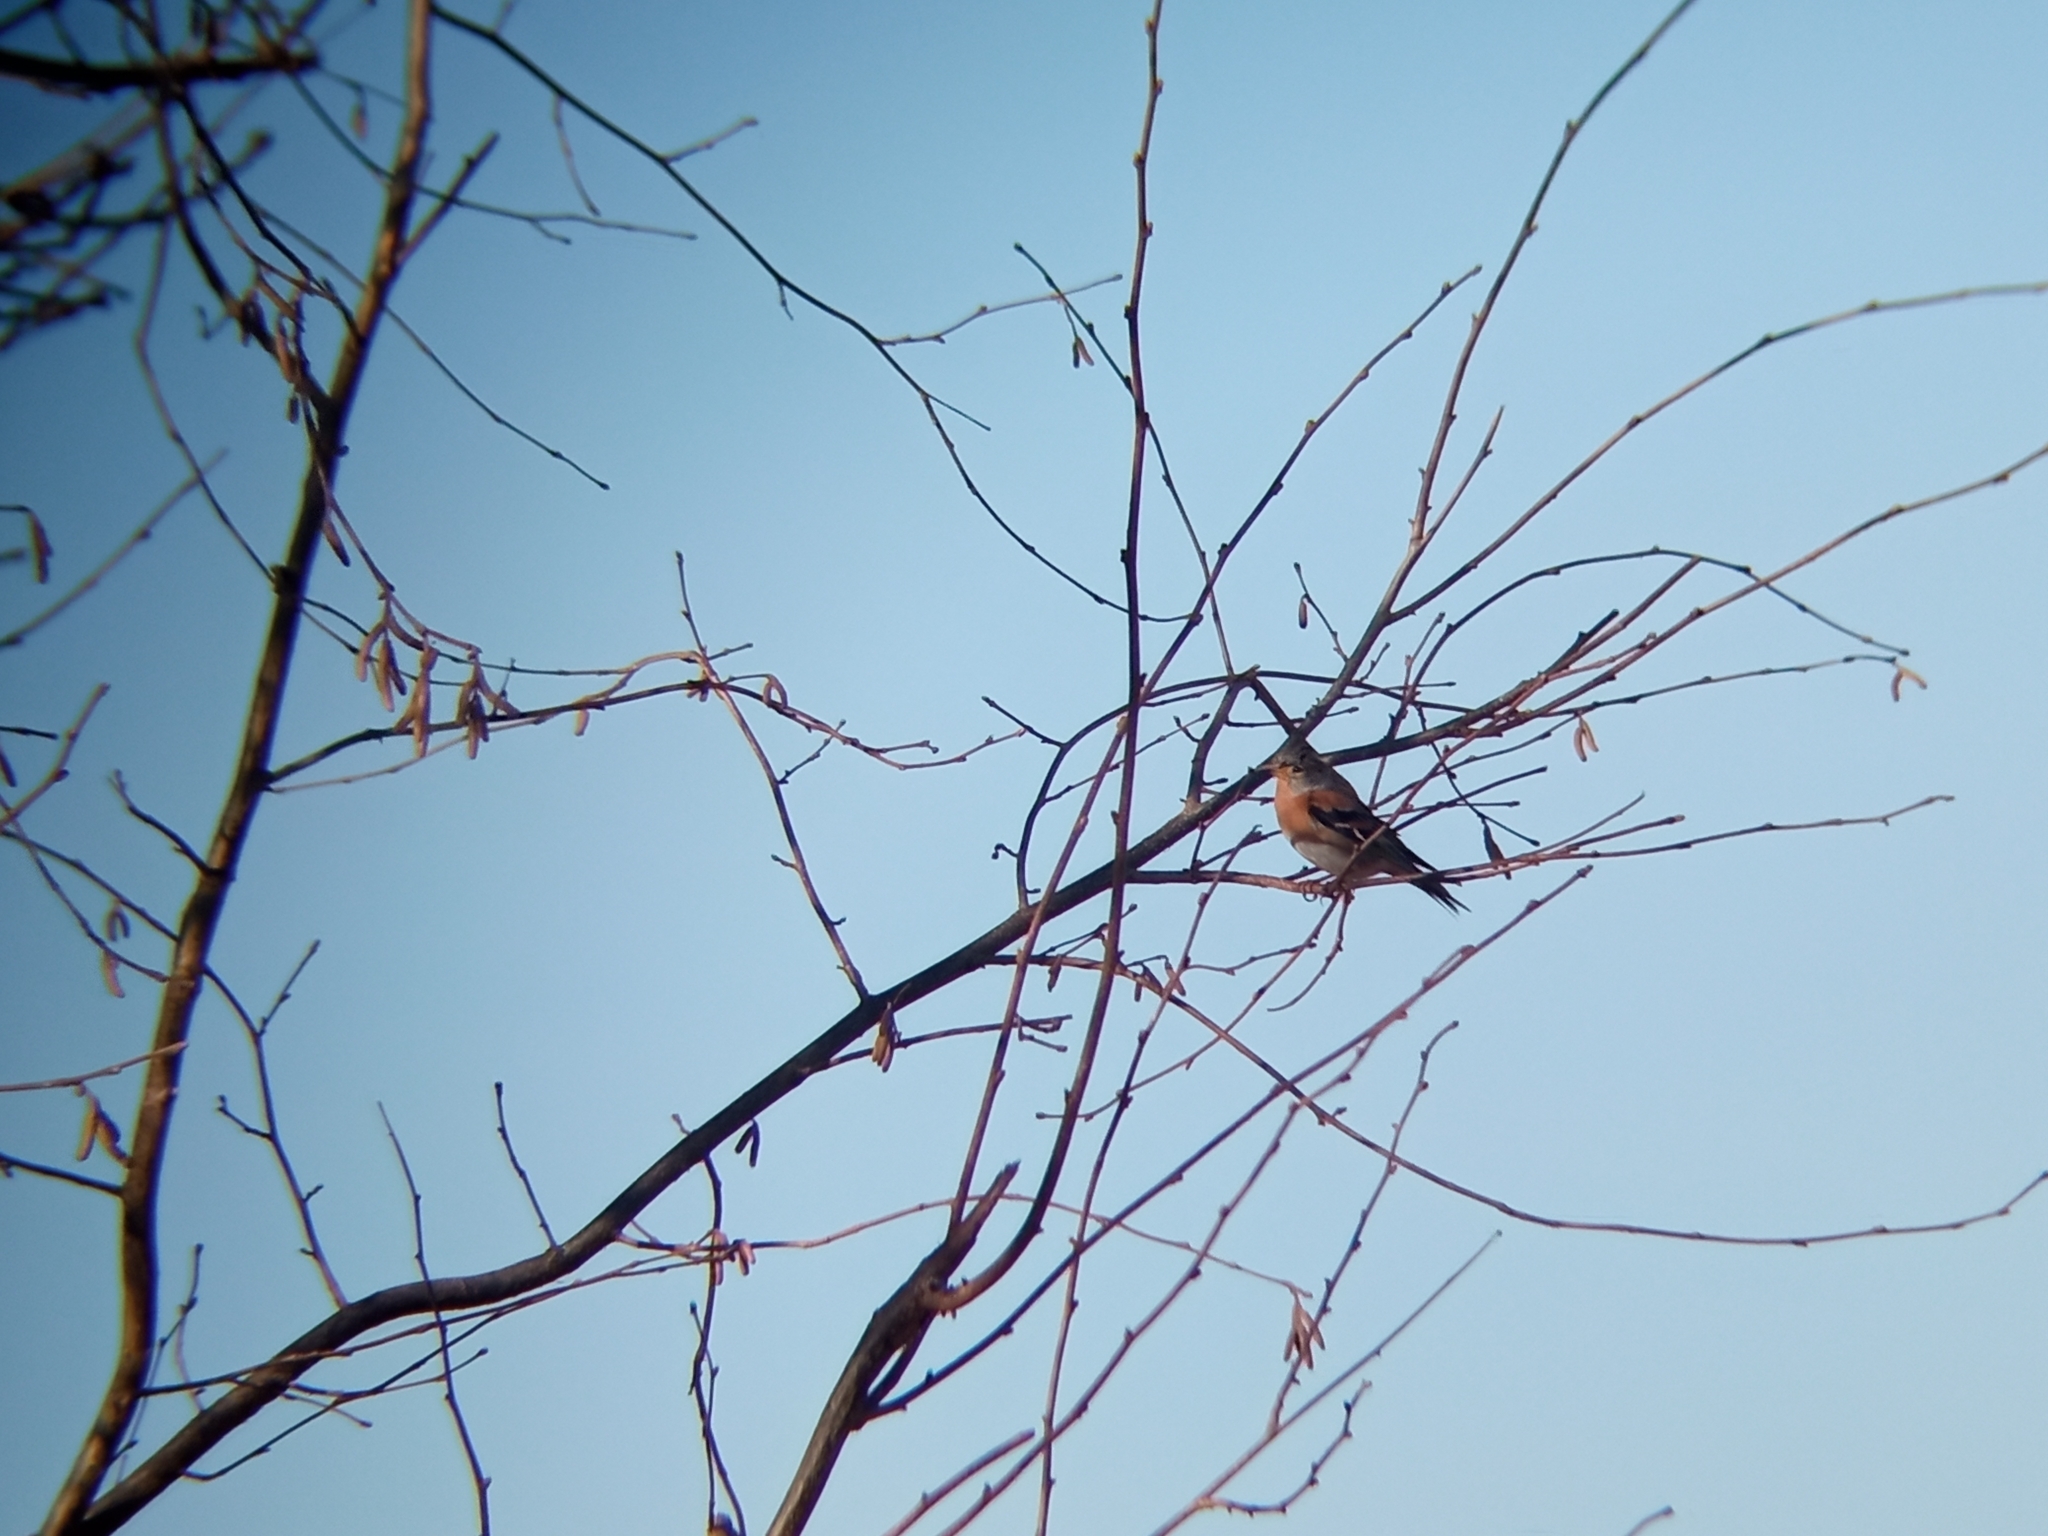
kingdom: Animalia
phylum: Chordata
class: Aves
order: Passeriformes
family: Fringillidae
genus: Fringilla
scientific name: Fringilla montifringilla
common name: Brambling
